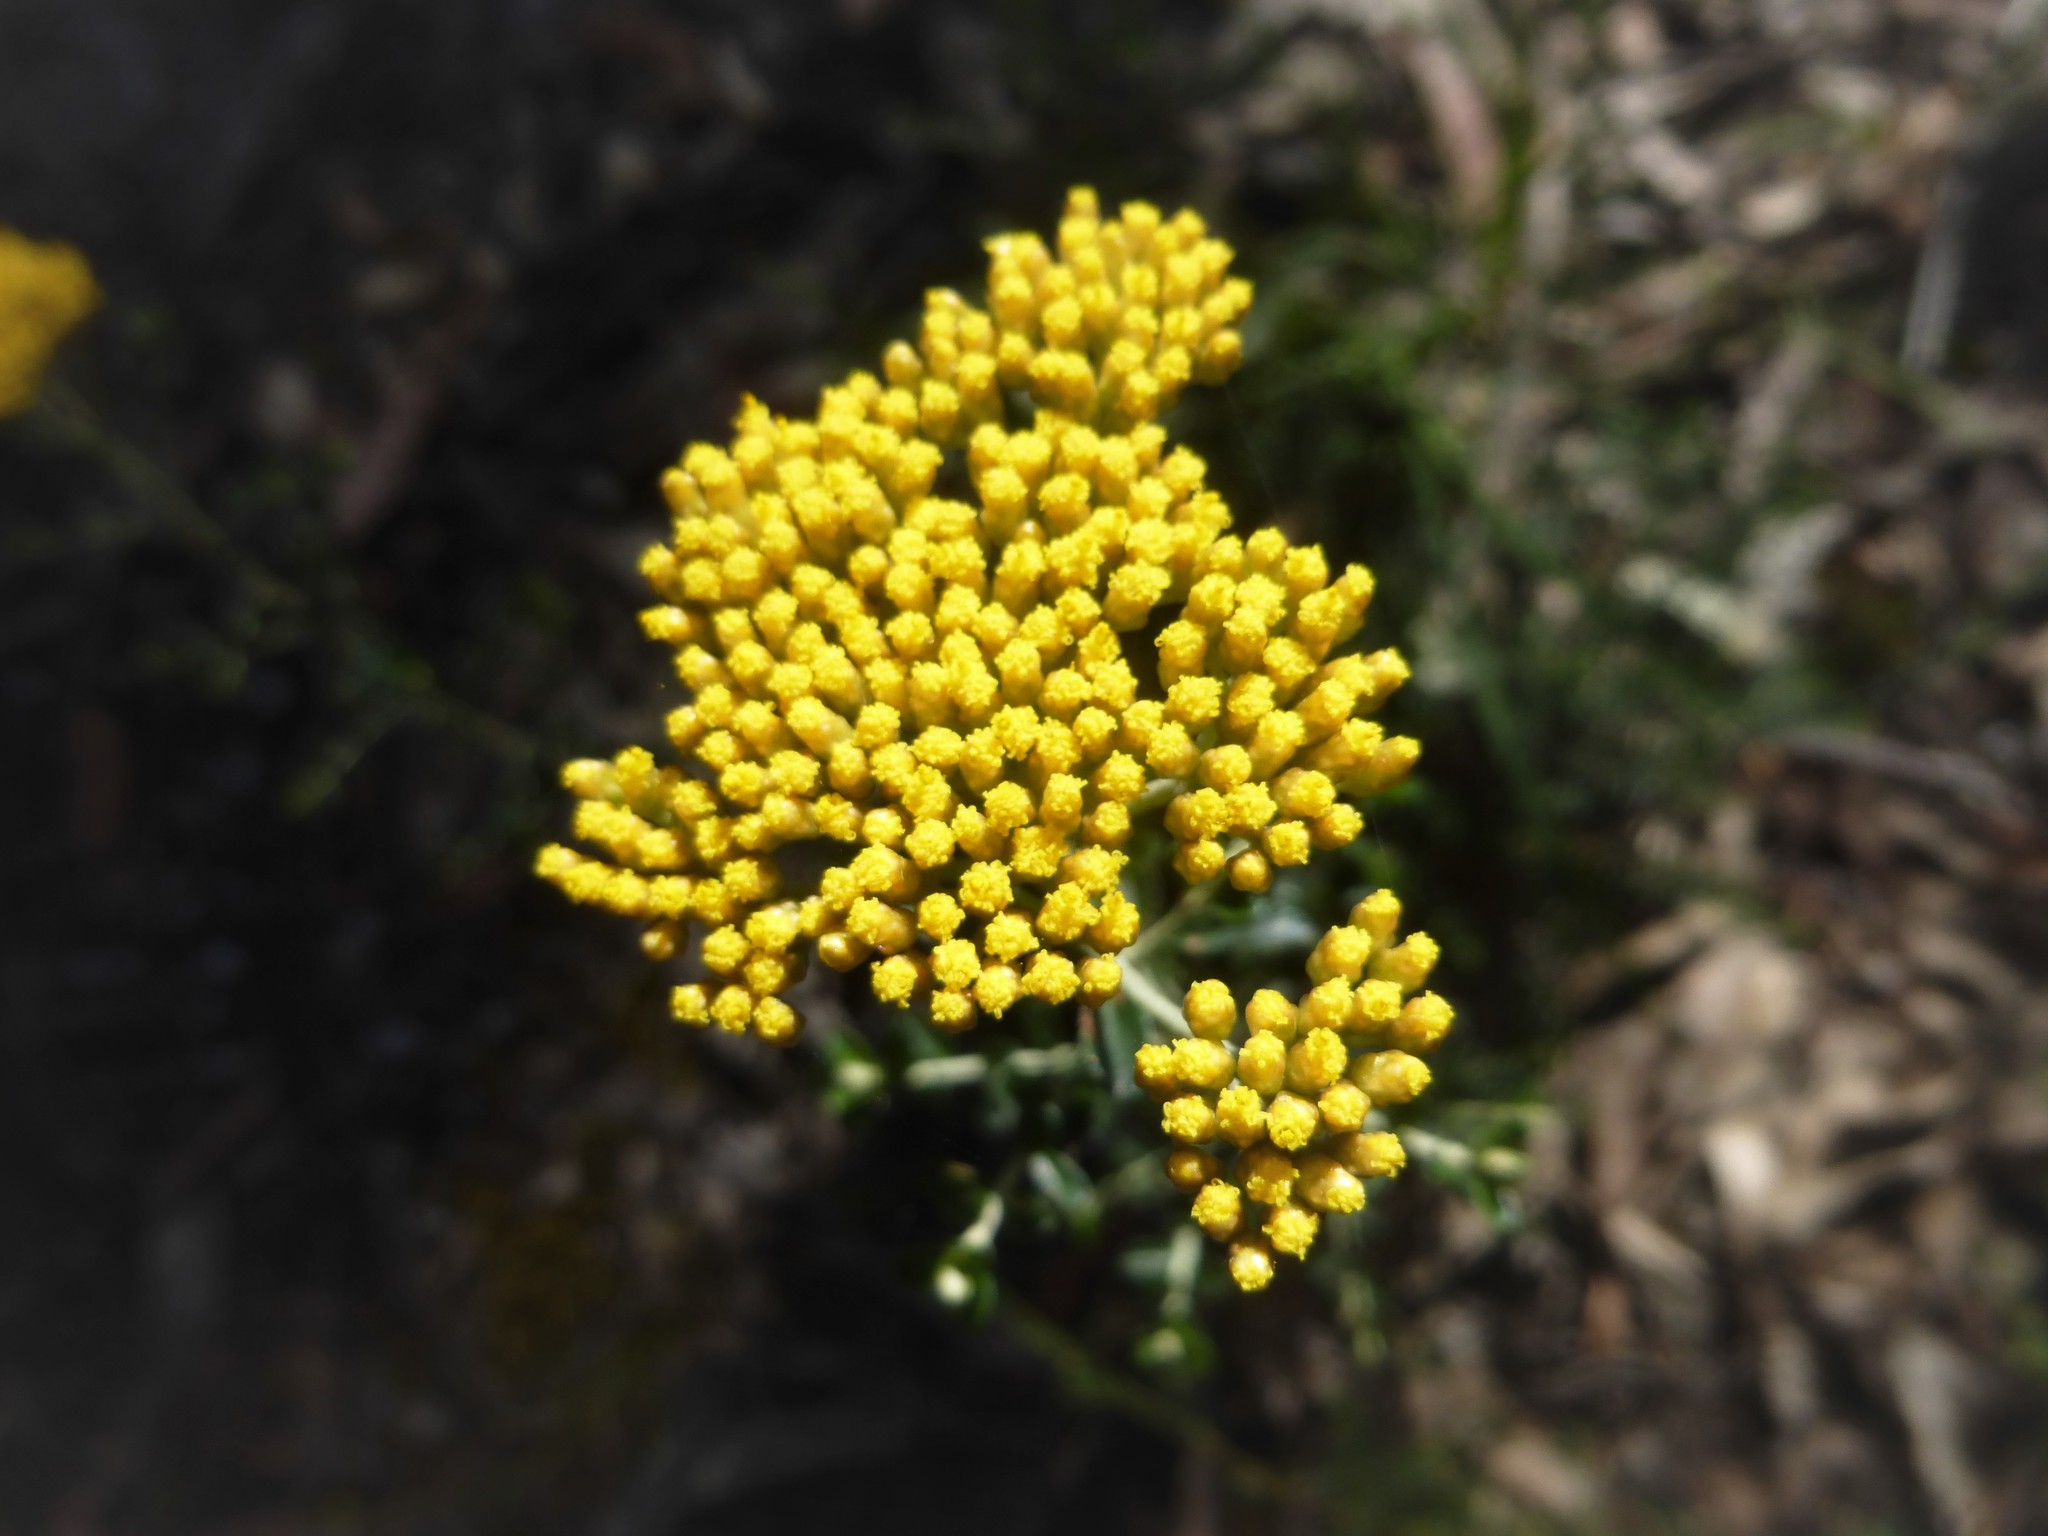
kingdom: Plantae
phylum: Tracheophyta
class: Magnoliopsida
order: Asterales
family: Asteraceae
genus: Ozothamnus
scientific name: Ozothamnus obcordatus
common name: Grey everlasting
